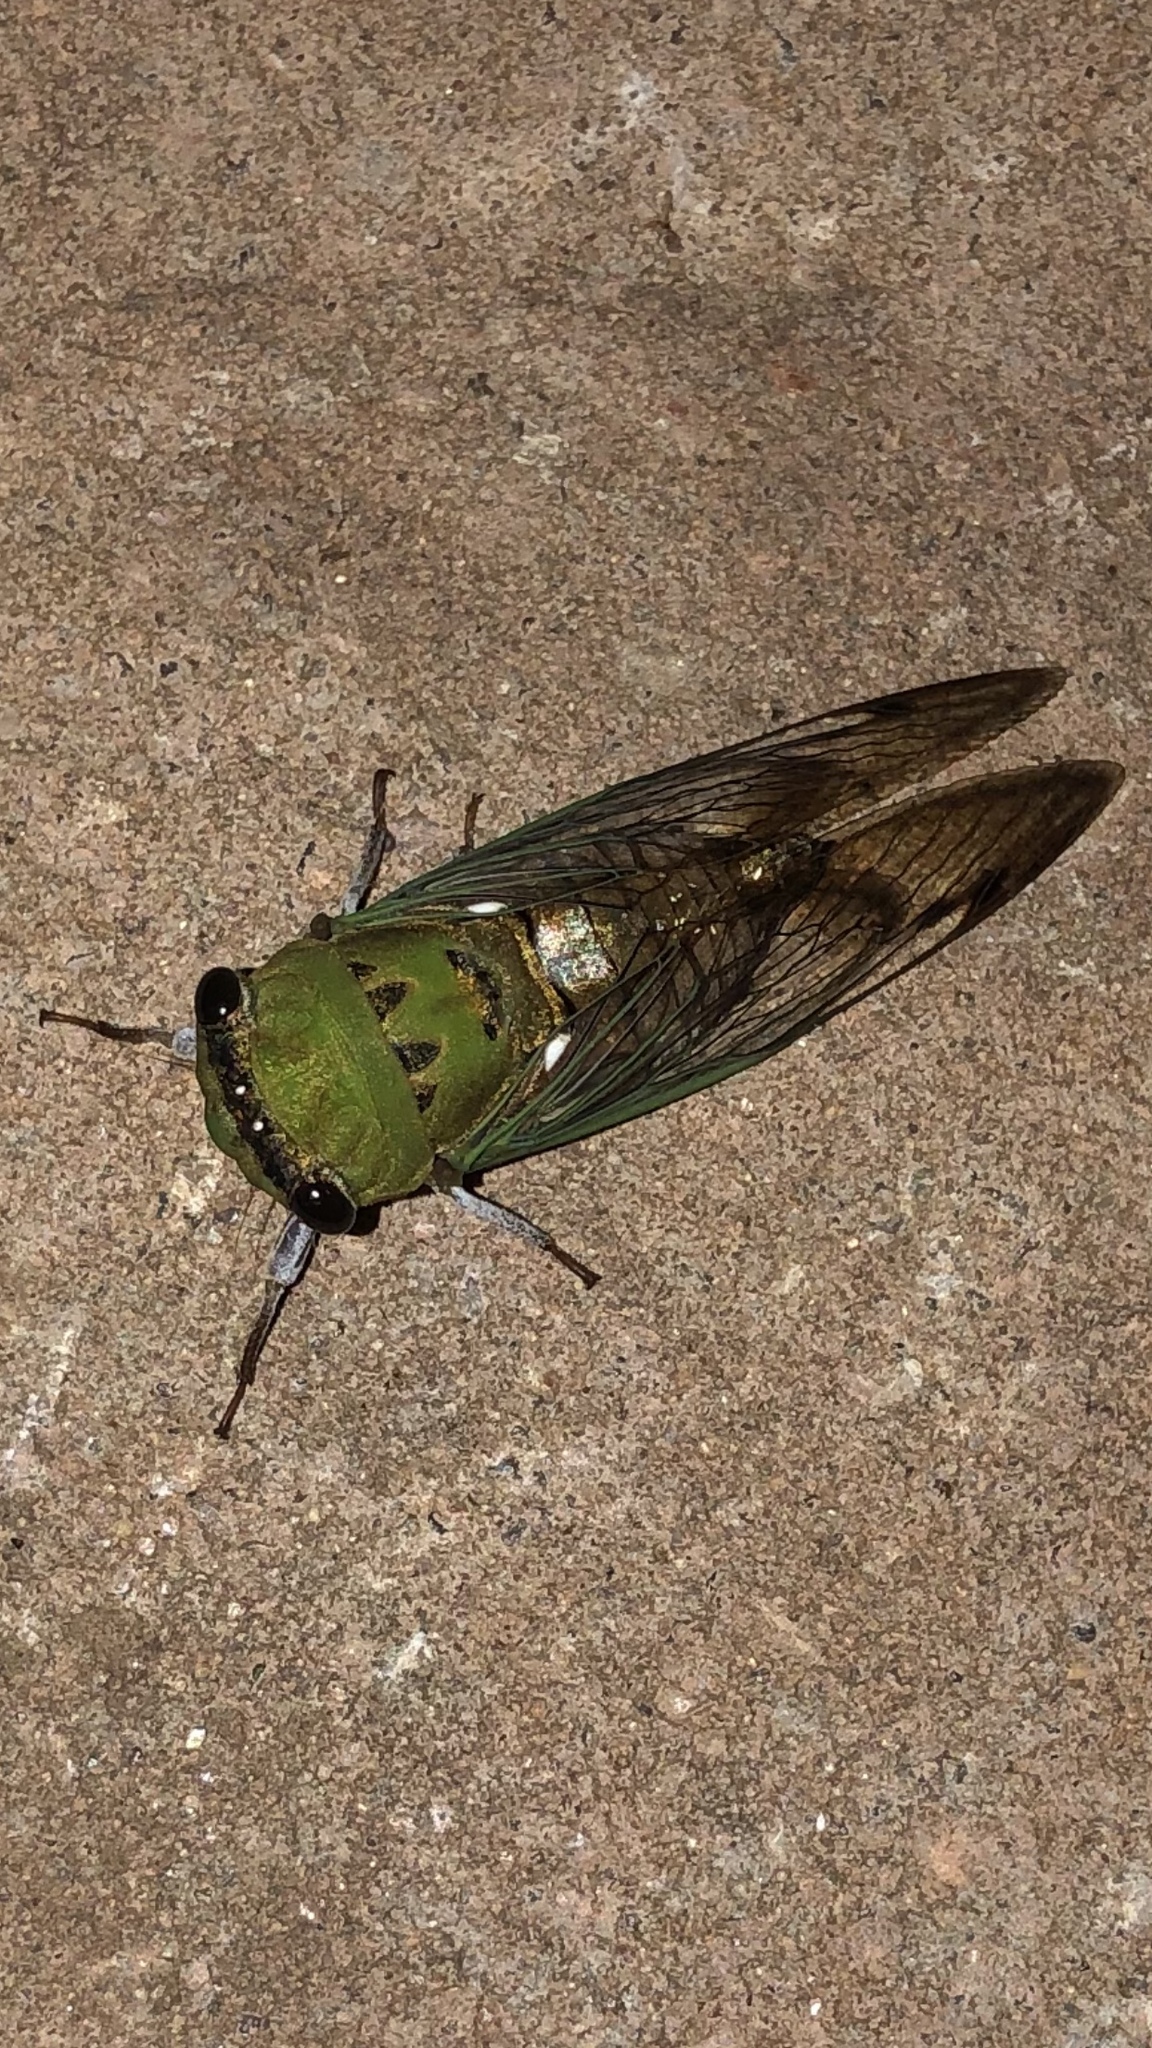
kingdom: Animalia
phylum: Arthropoda
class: Insecta
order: Hemiptera
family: Cicadidae
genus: Neotibicen
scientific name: Neotibicen superbus
